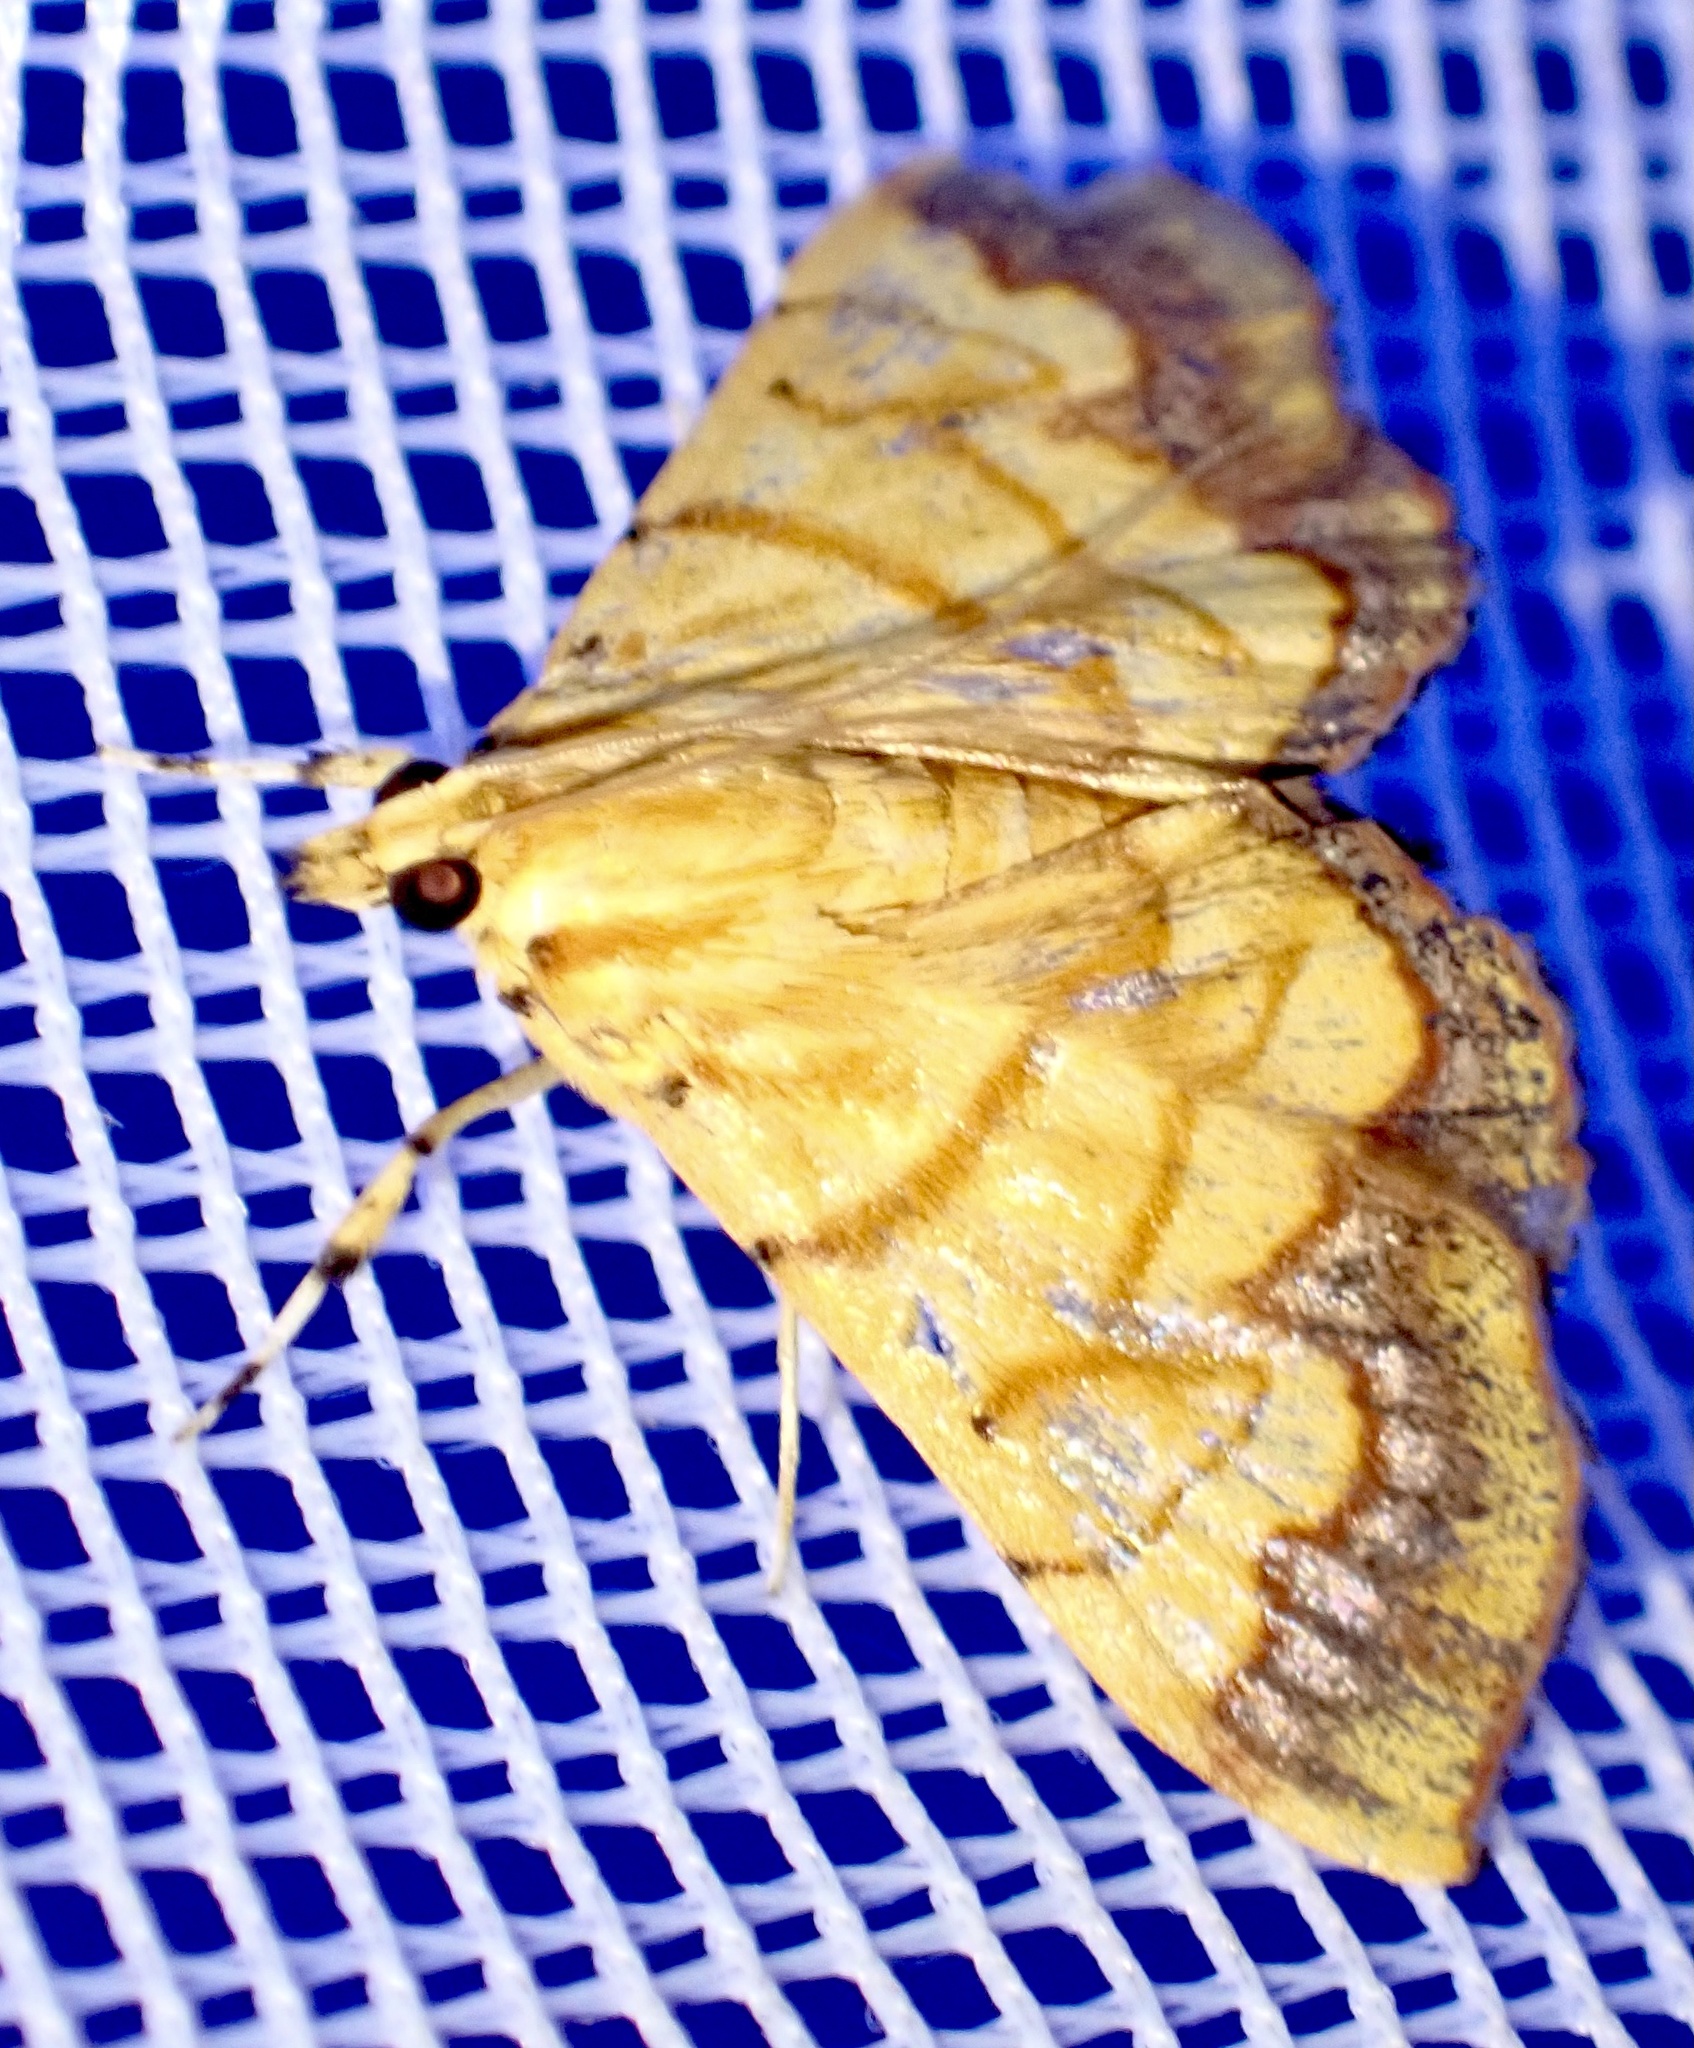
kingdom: Animalia
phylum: Arthropoda
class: Insecta
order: Lepidoptera
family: Crambidae
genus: Cryptosara
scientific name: Cryptosara caritalis
